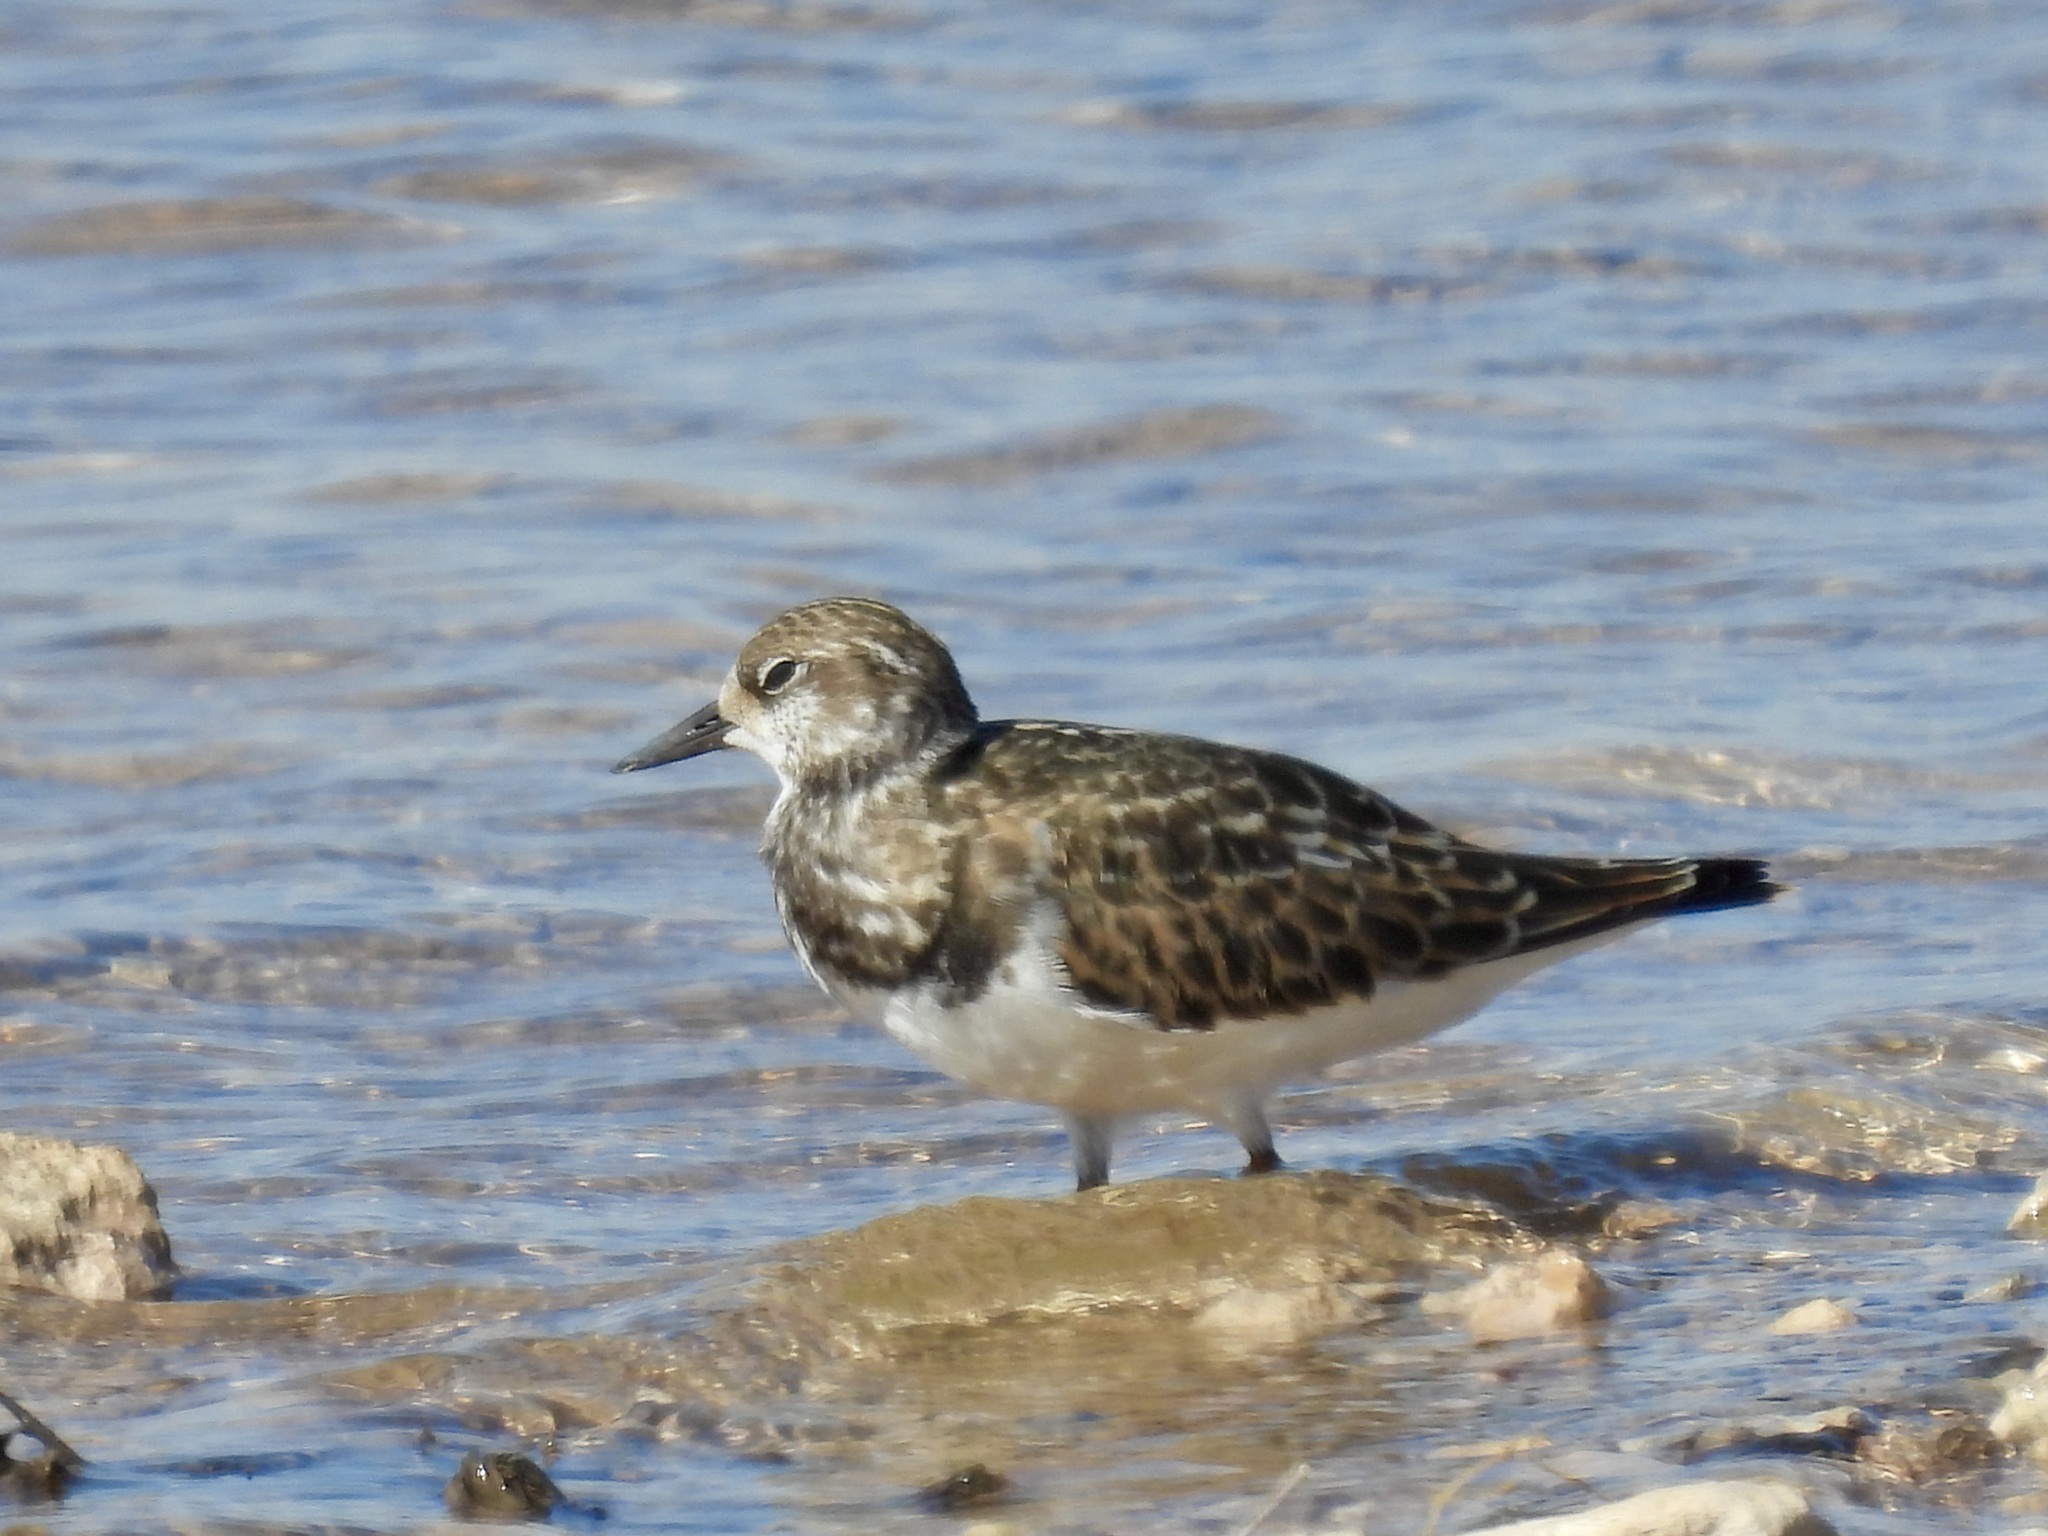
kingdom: Animalia
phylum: Chordata
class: Aves
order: Charadriiformes
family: Scolopacidae
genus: Arenaria
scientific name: Arenaria interpres
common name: Ruddy turnstone
